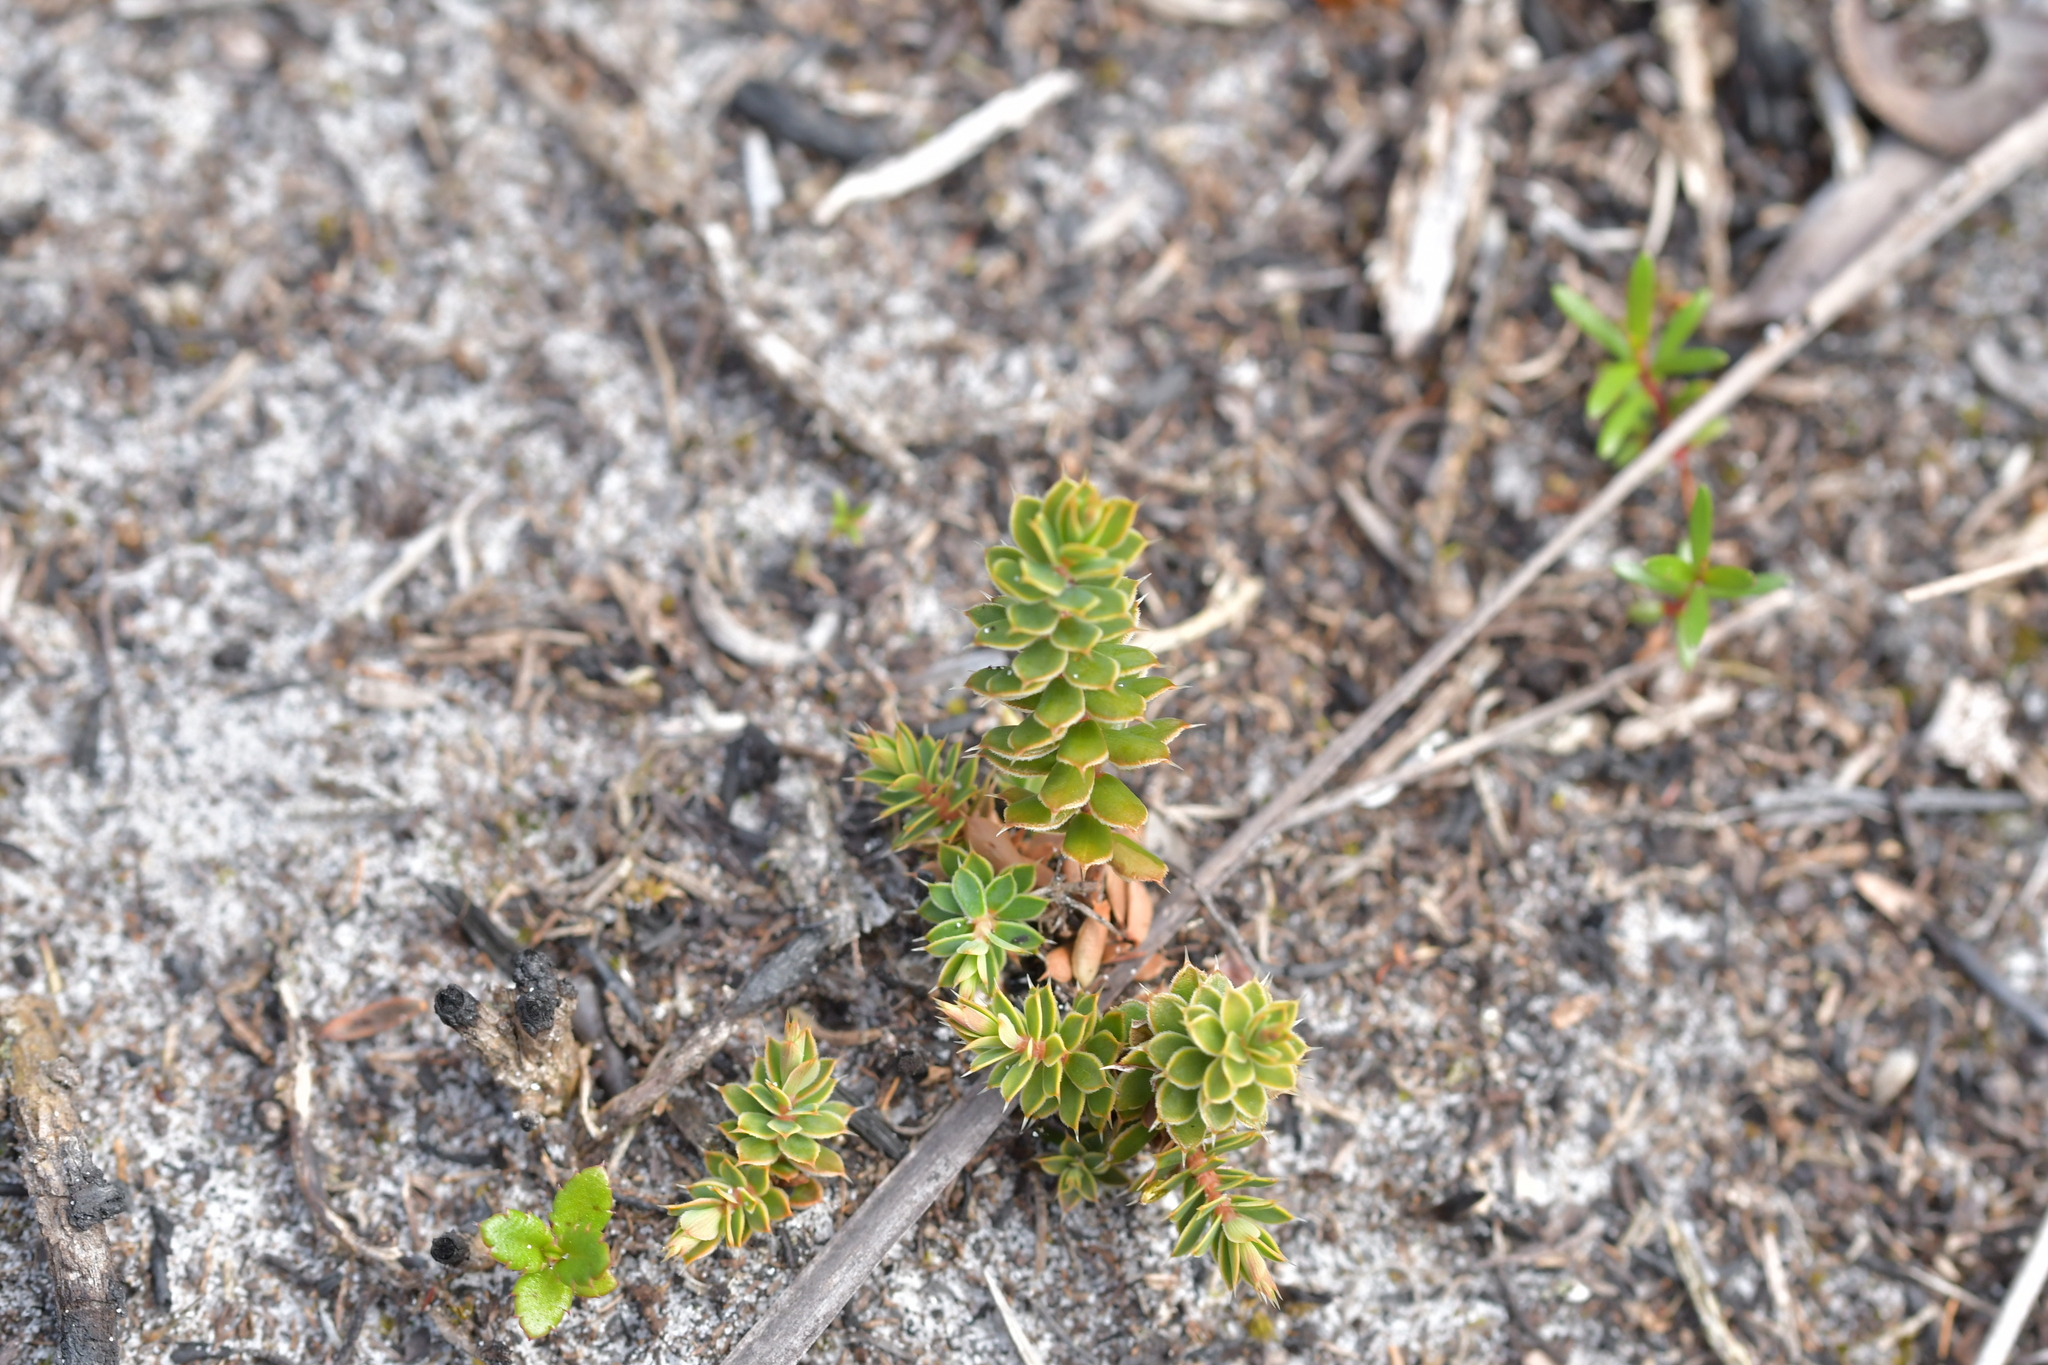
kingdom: Plantae
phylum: Tracheophyta
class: Magnoliopsida
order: Ericales
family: Ericaceae
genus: Styphelia
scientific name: Styphelia nesophila
